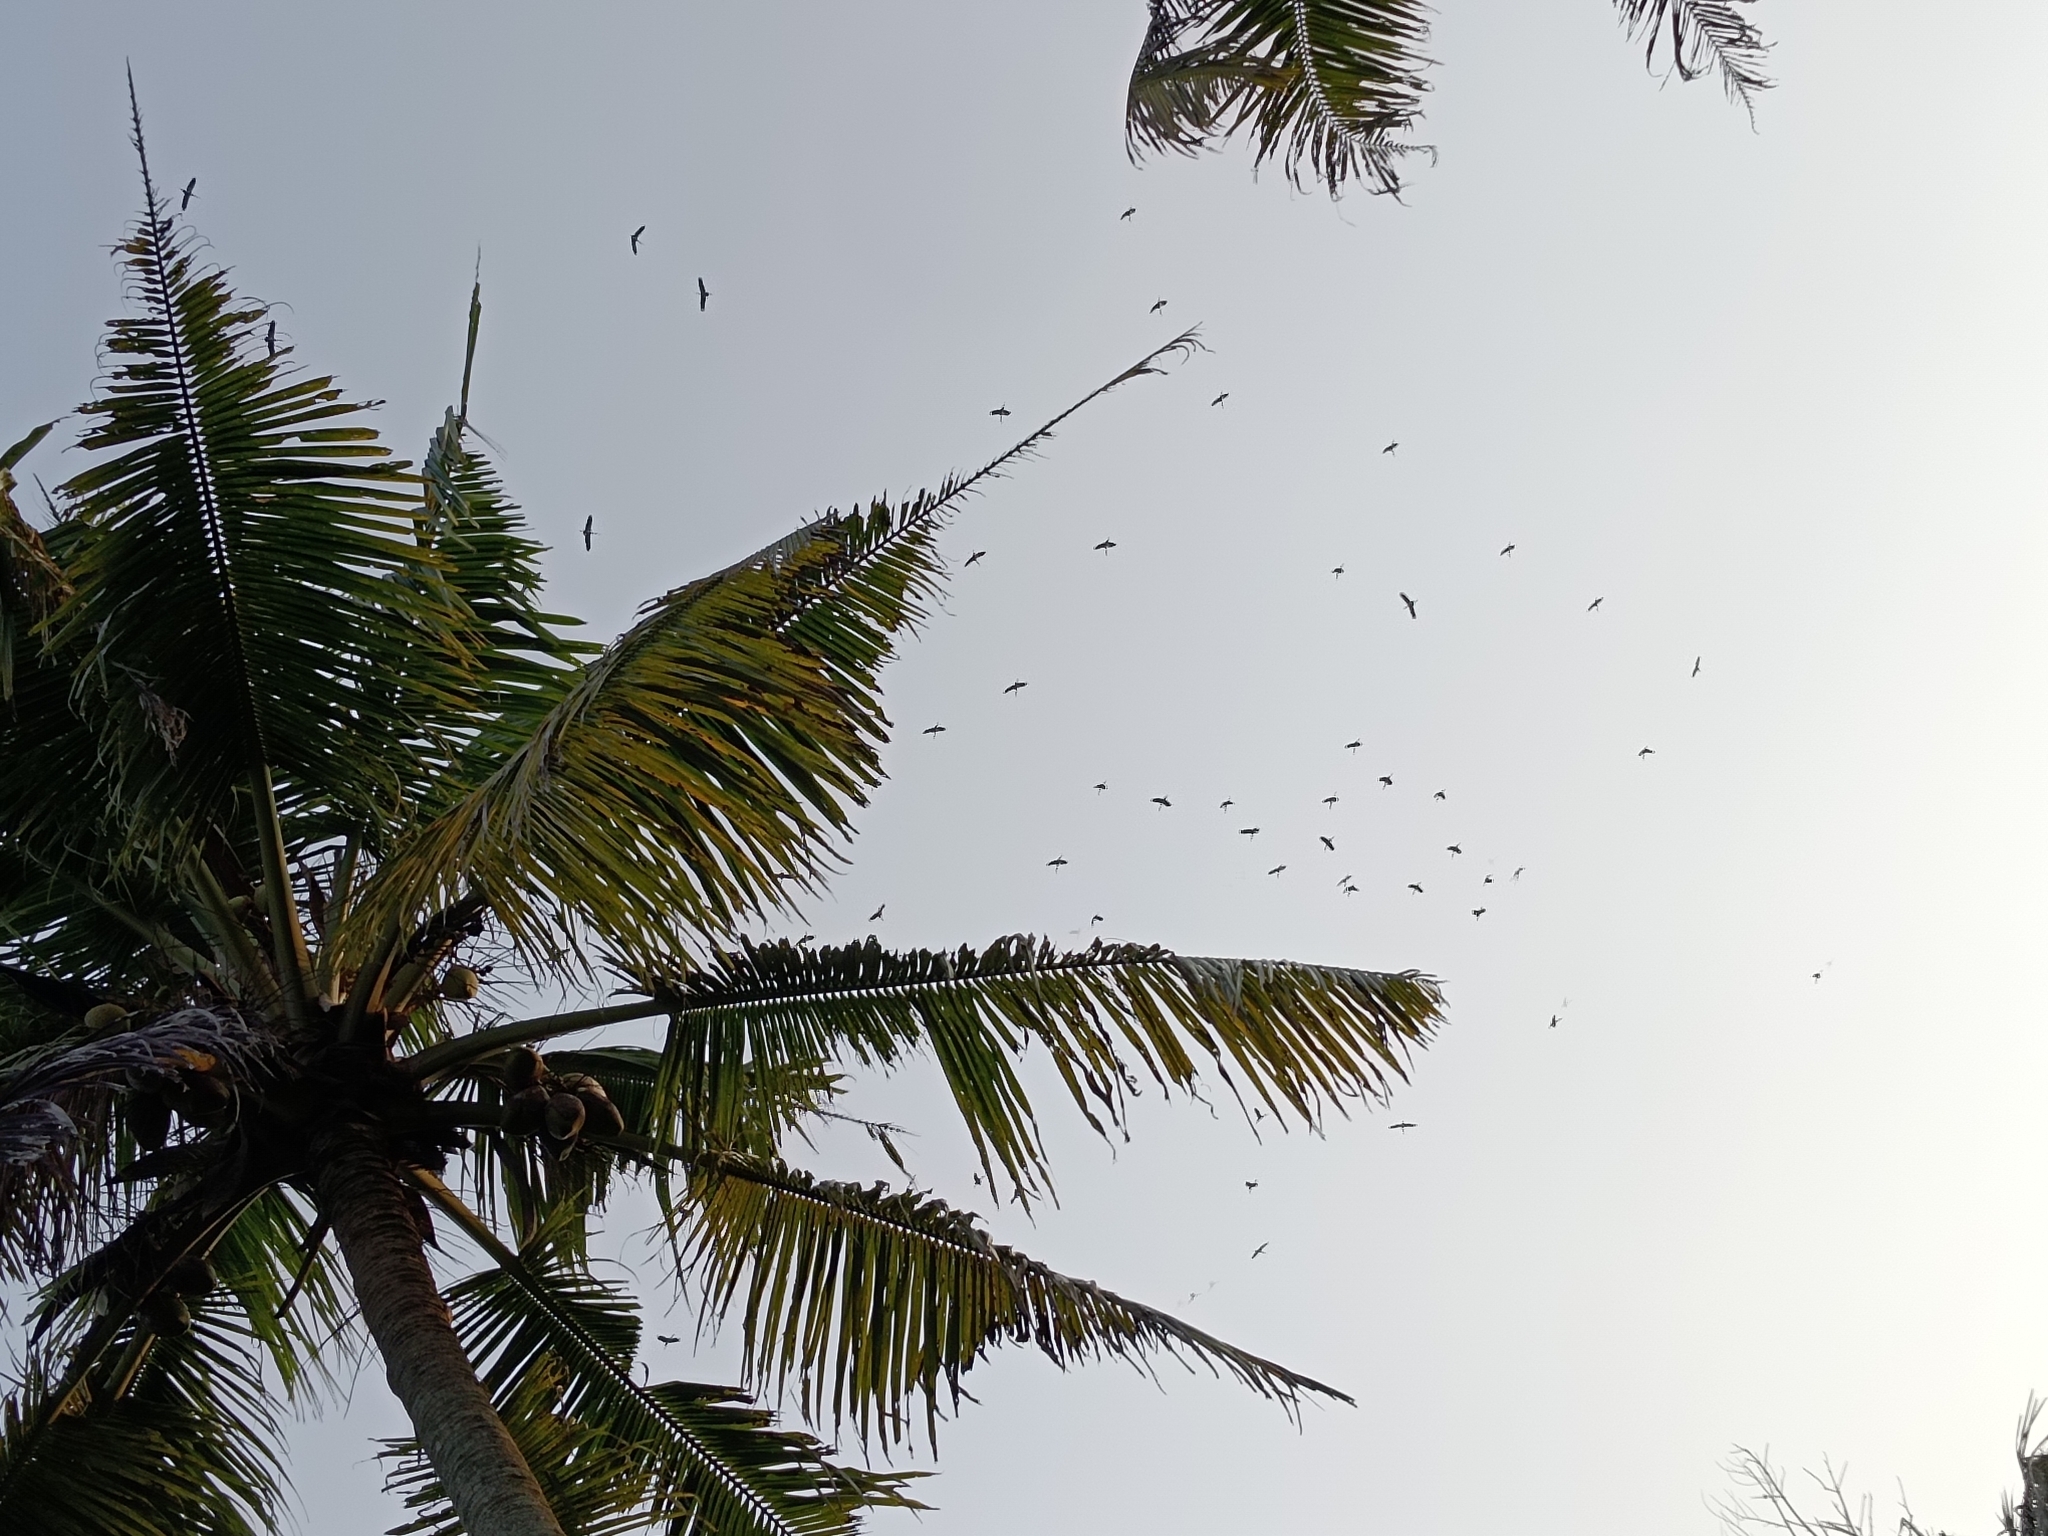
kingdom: Animalia
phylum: Chordata
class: Aves
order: Ciconiiformes
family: Ciconiidae
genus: Mycteria
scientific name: Mycteria leucocephala
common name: Painted stork
